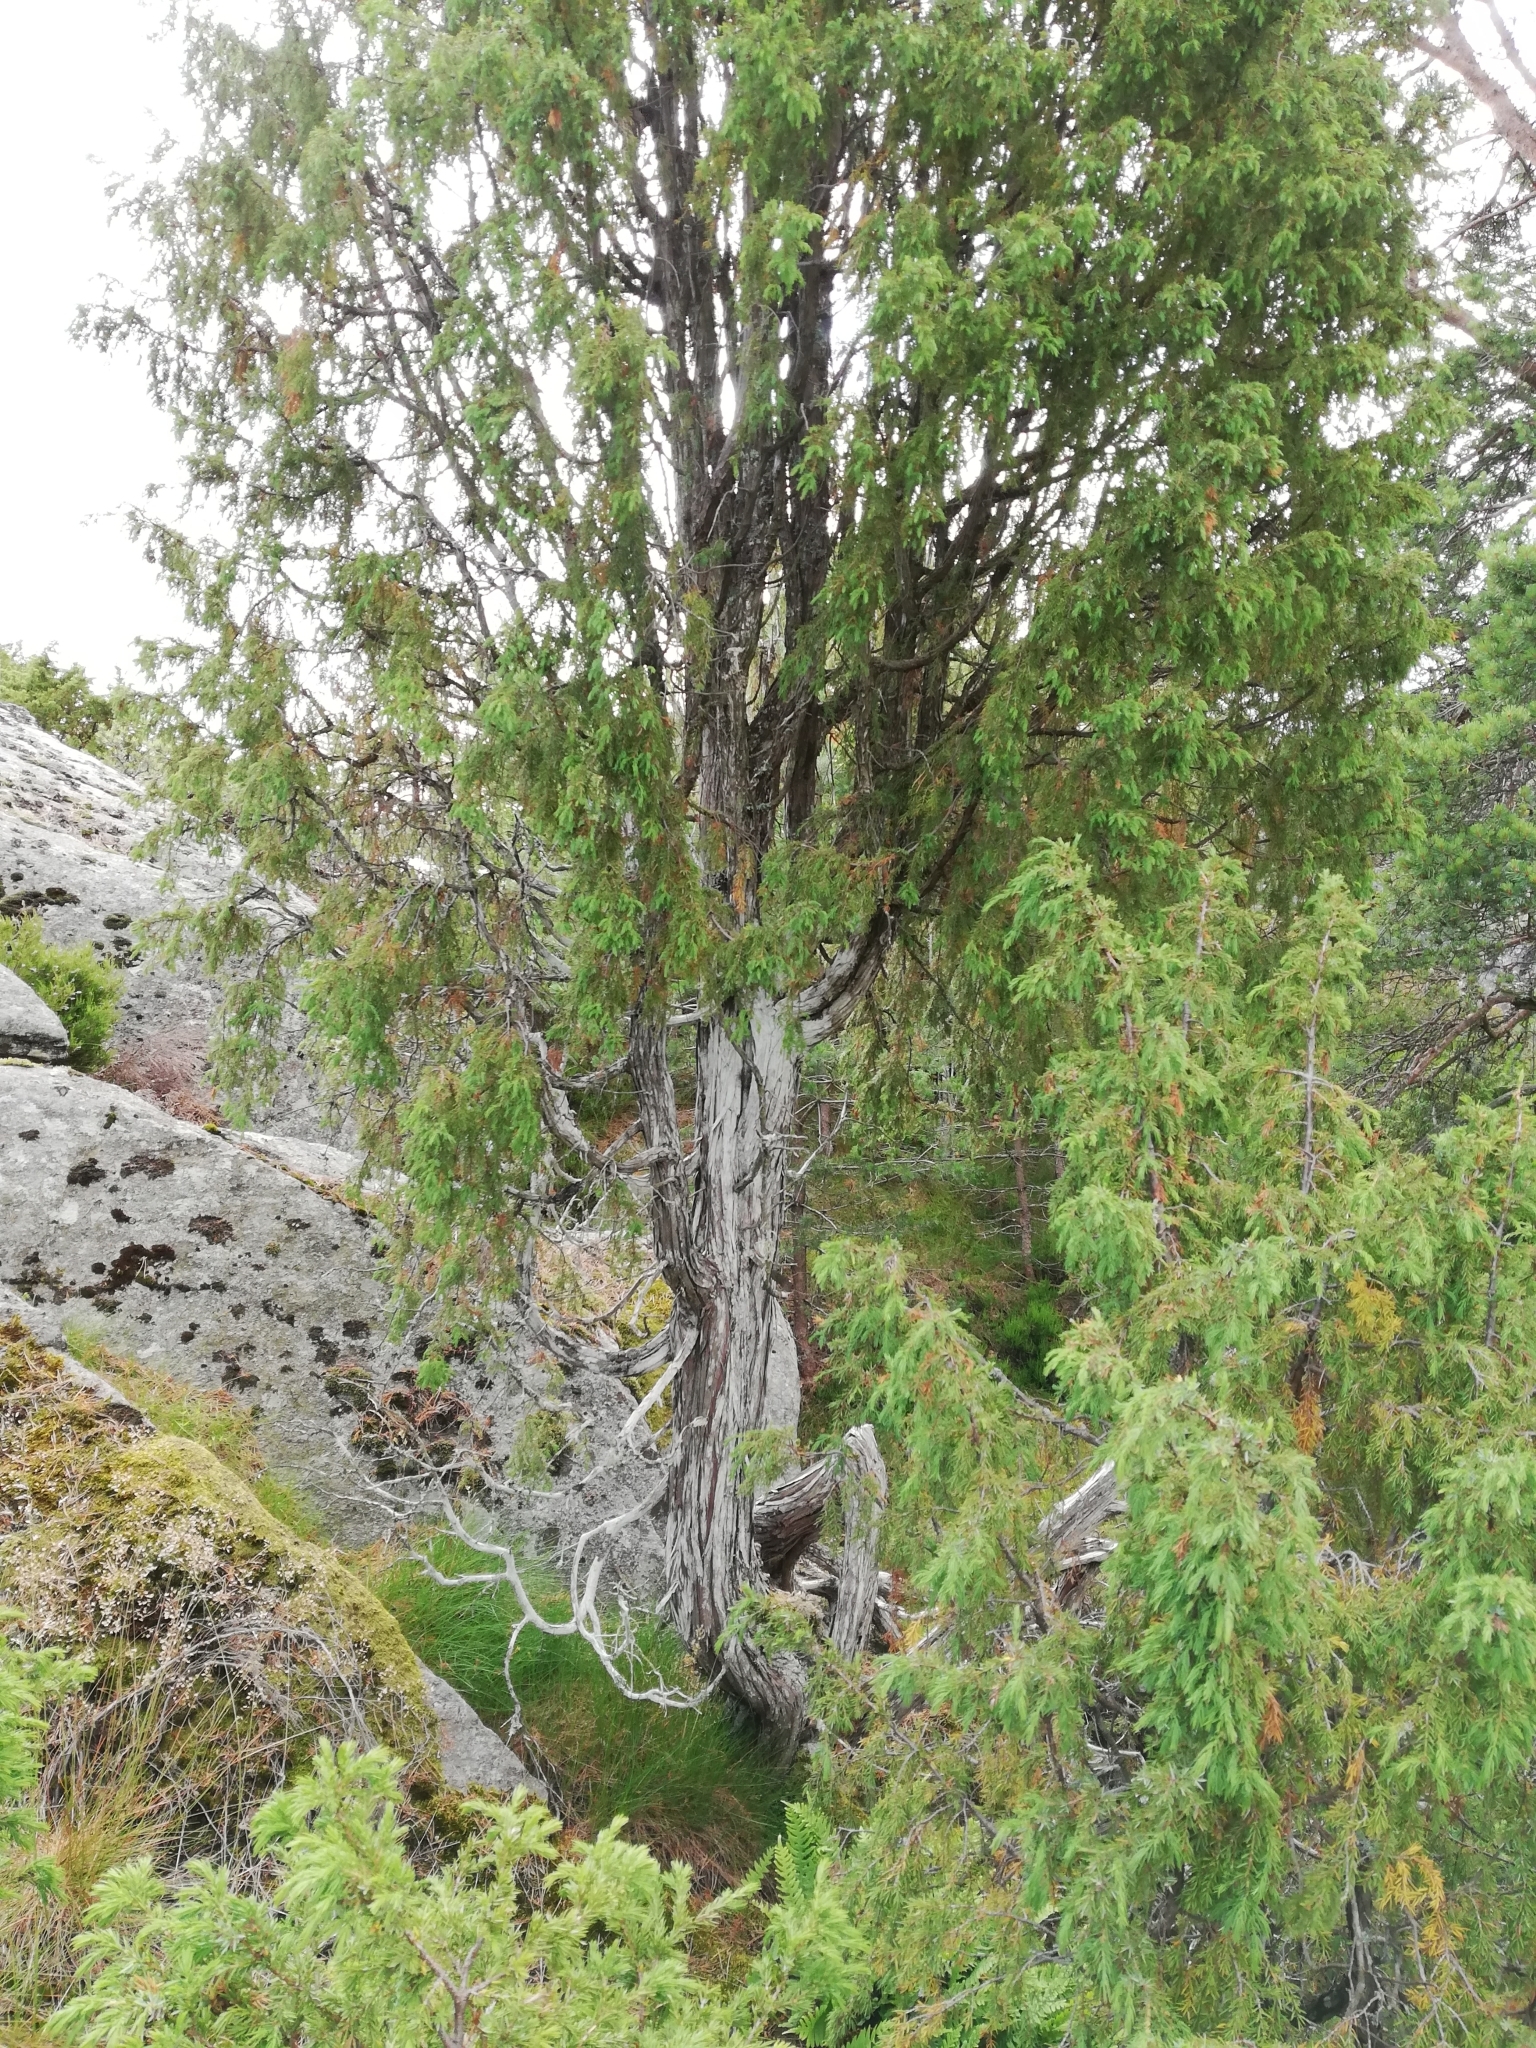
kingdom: Plantae
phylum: Tracheophyta
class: Pinopsida
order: Pinales
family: Cupressaceae
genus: Juniperus
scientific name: Juniperus communis
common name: Common juniper
